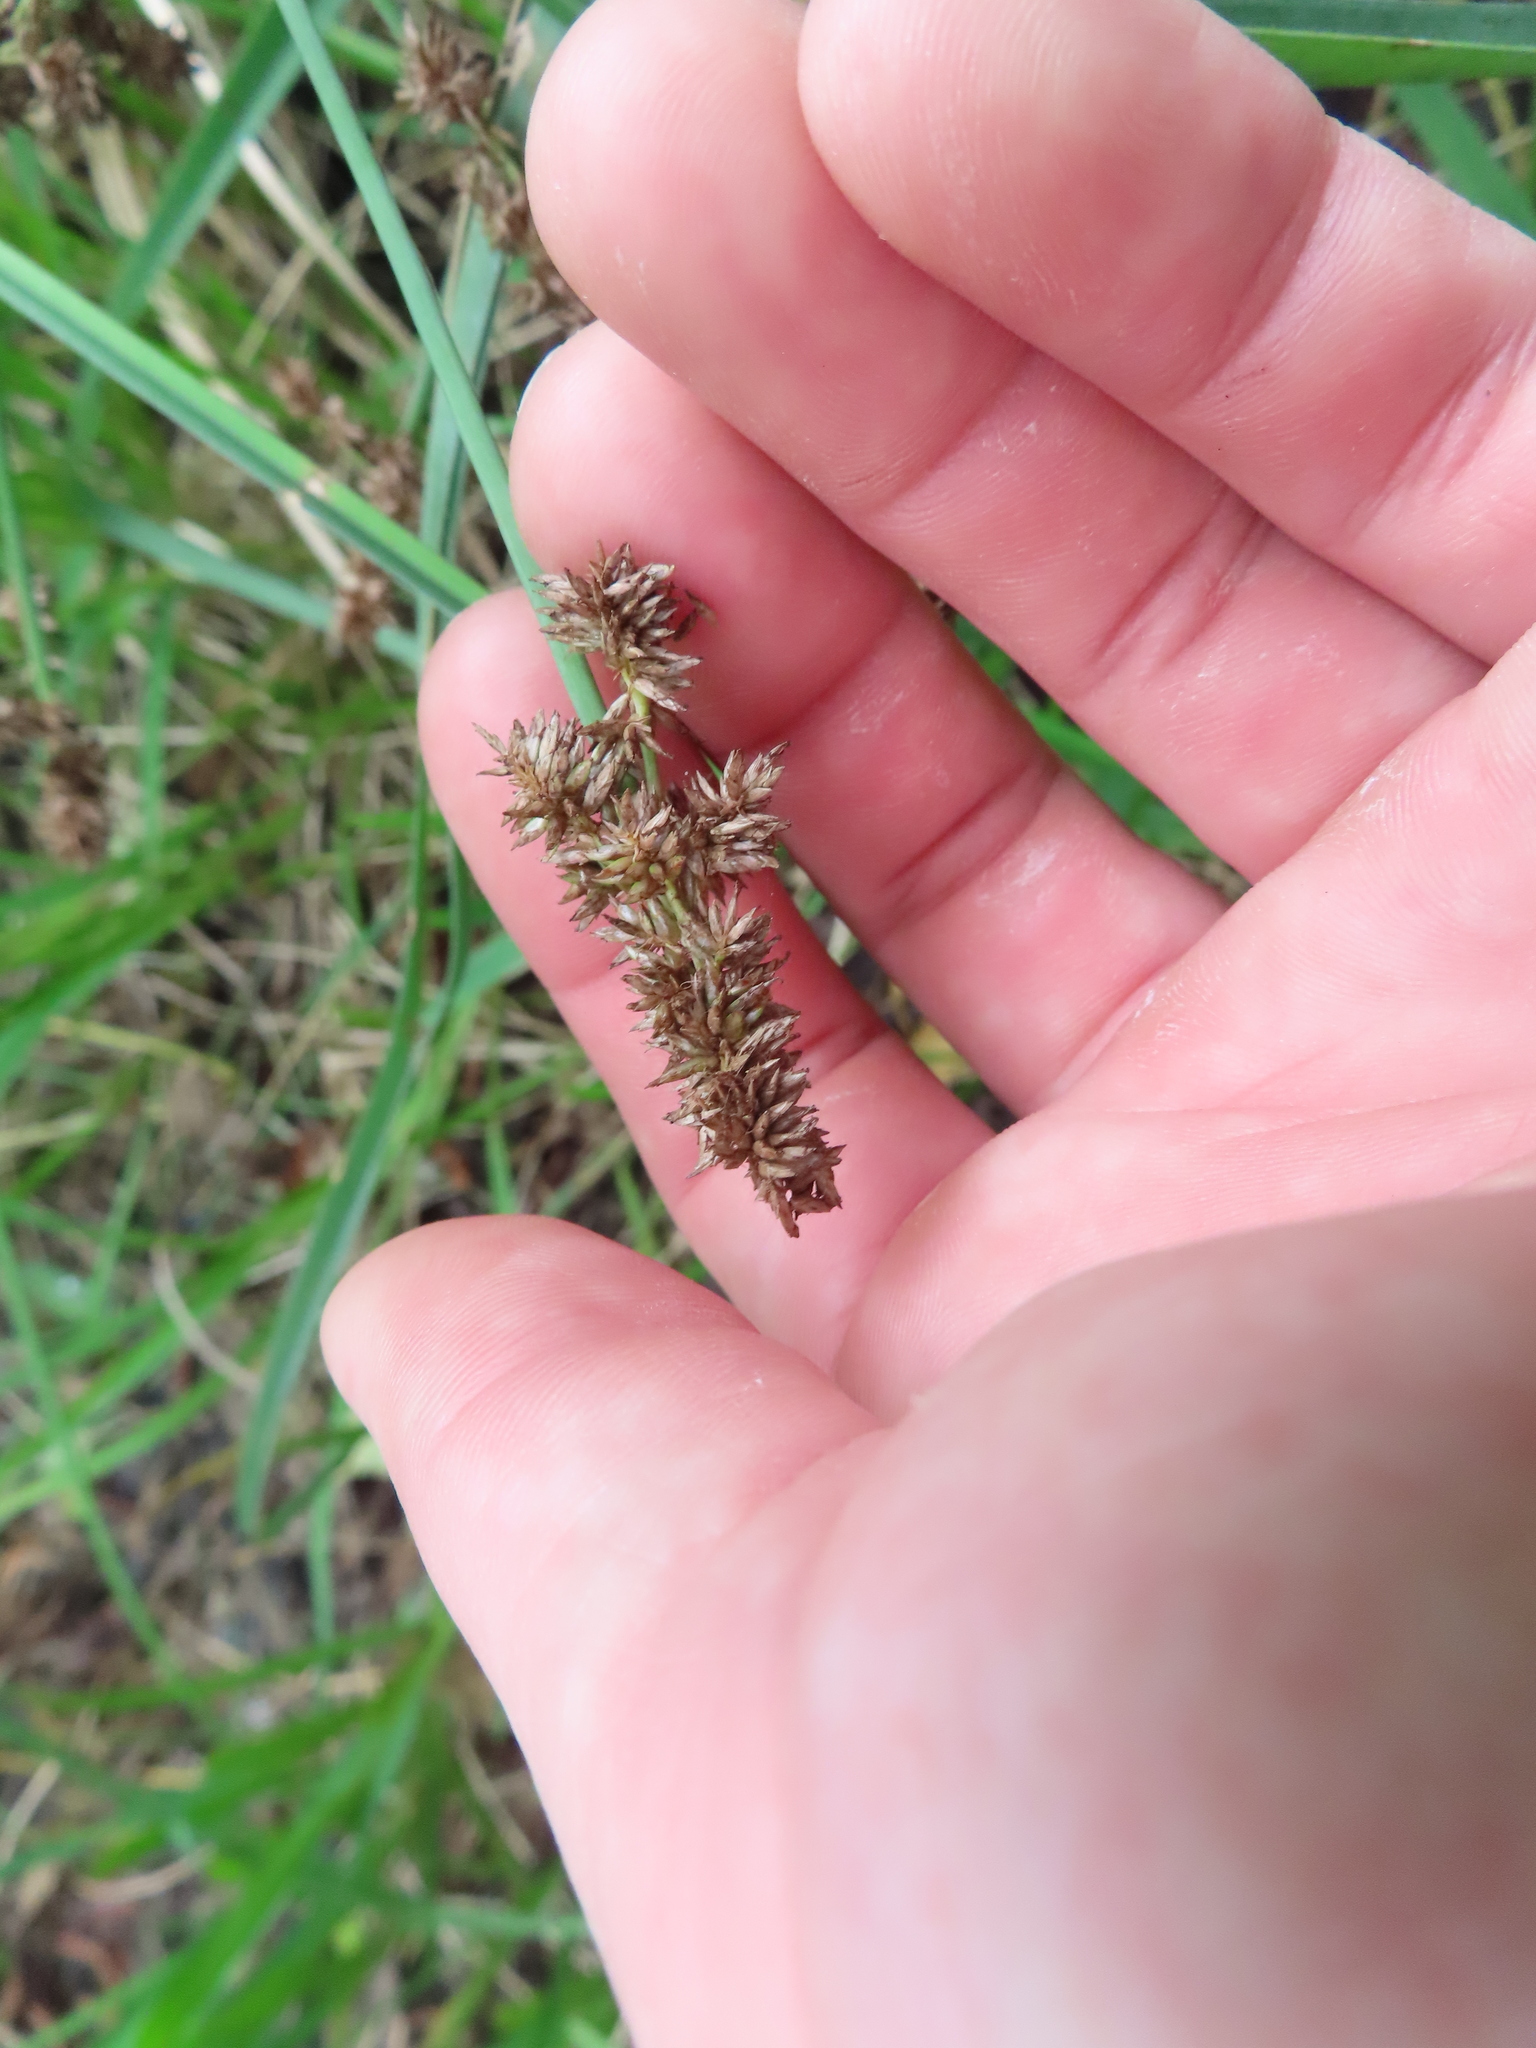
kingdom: Plantae
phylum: Tracheophyta
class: Liliopsida
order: Poales
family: Cyperaceae
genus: Cyperus
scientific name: Cyperus ligularis
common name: Swamp flat sedge
